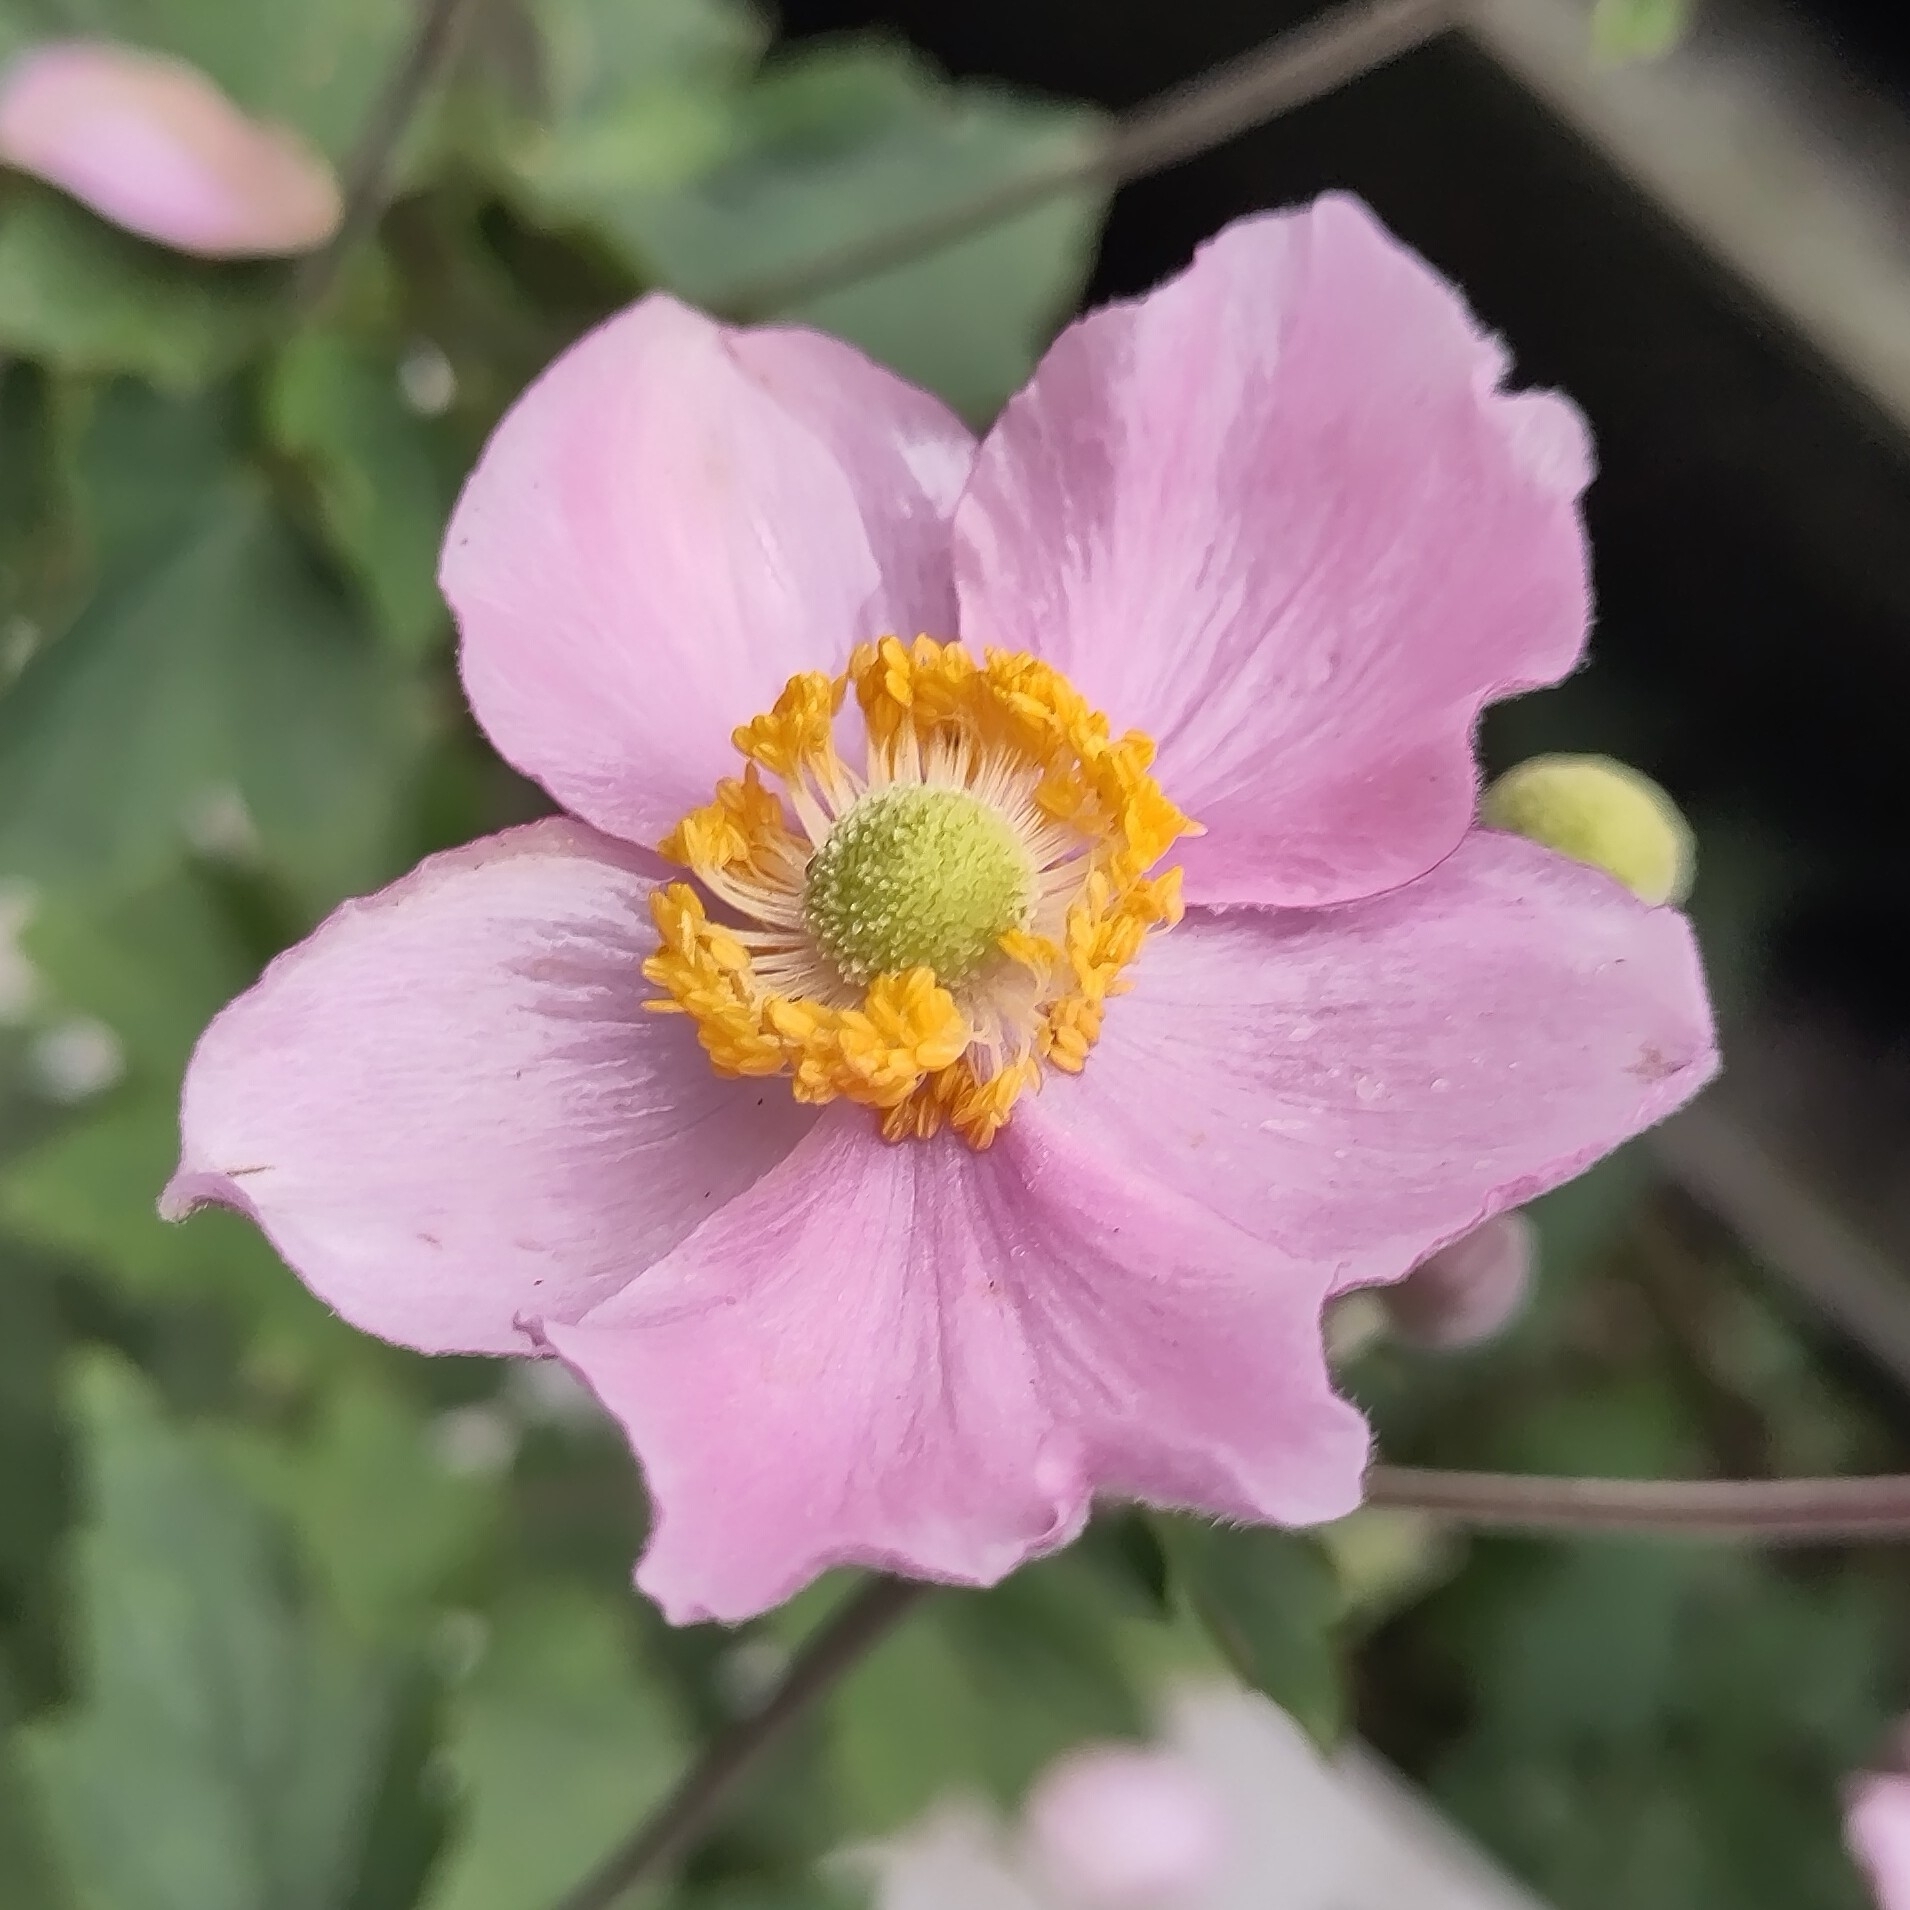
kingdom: Plantae
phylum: Tracheophyta
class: Magnoliopsida
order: Ranunculales
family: Ranunculaceae
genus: Eriocapitella
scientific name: Eriocapitella hupehensis
